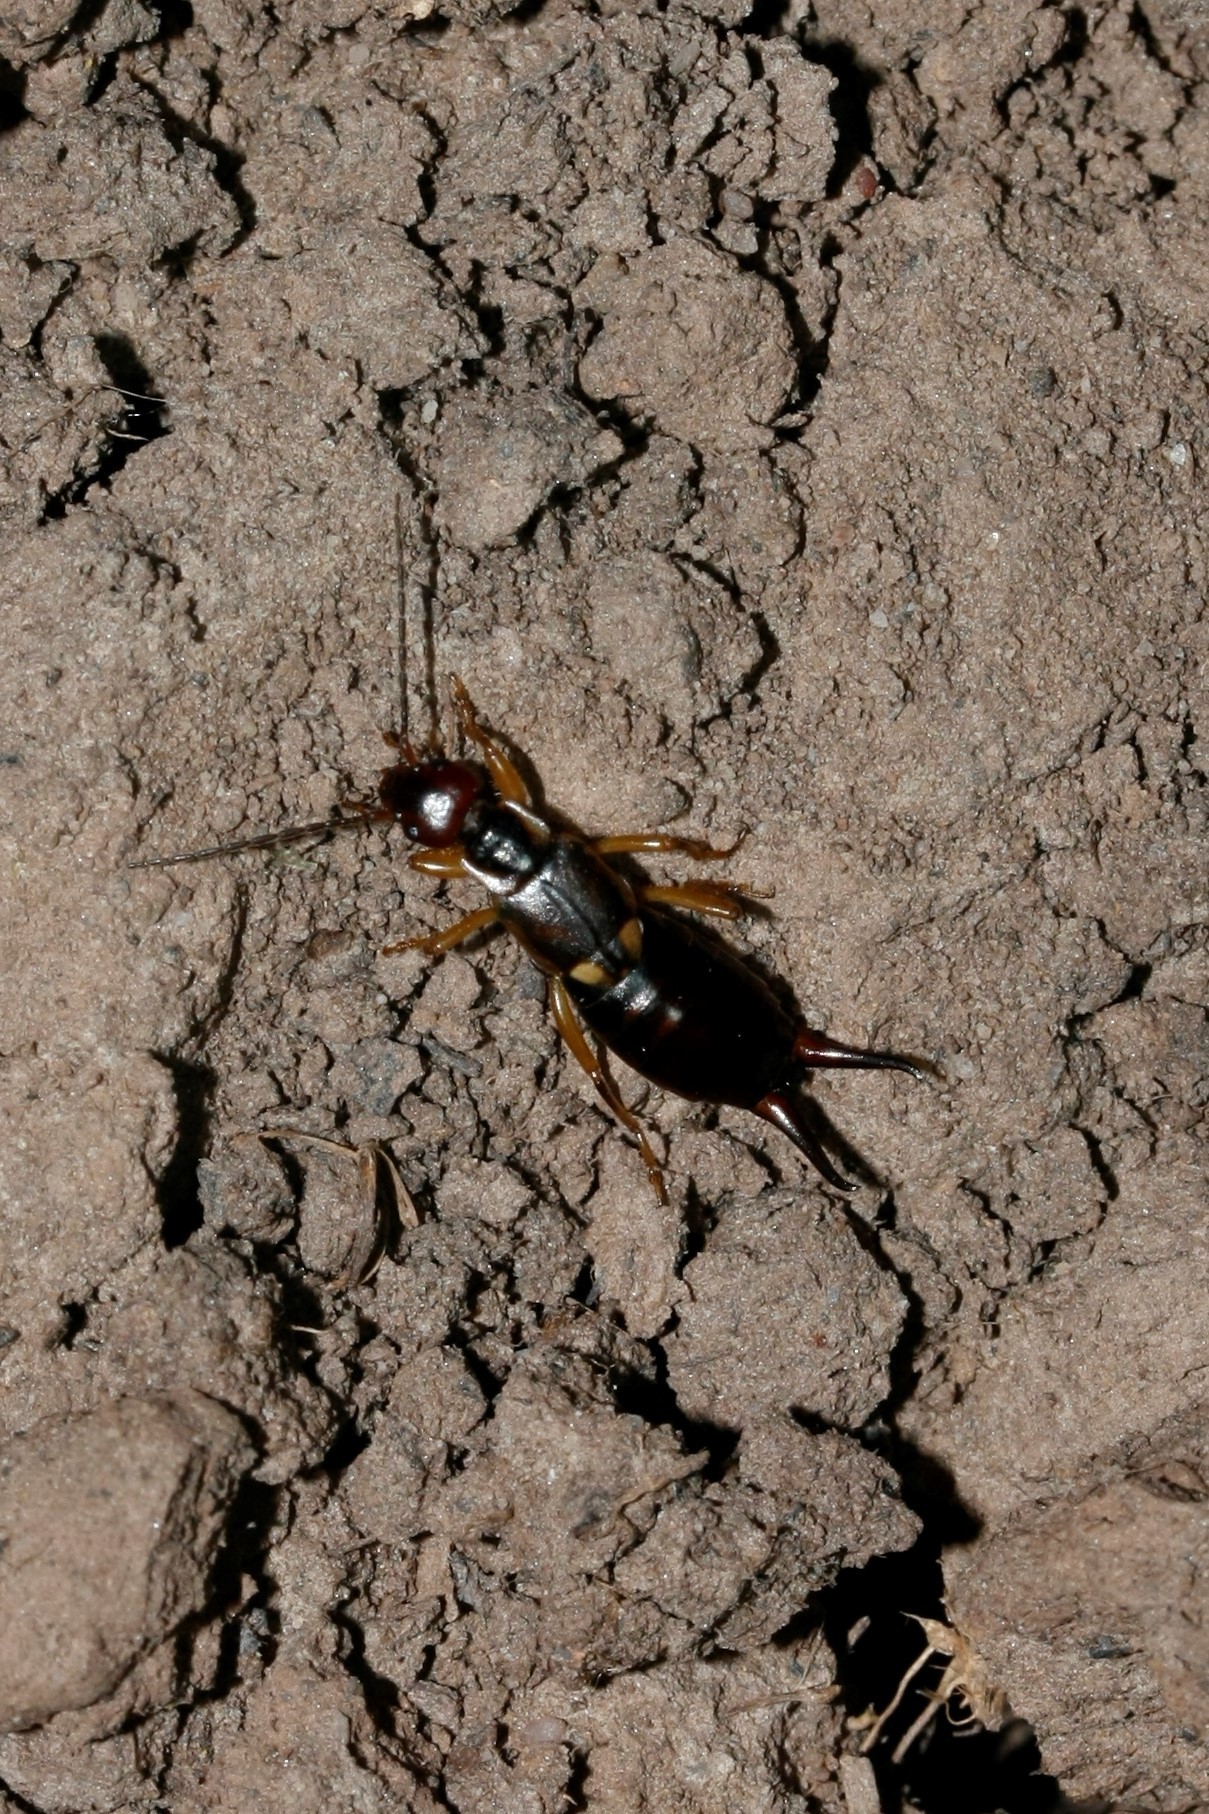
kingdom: Animalia
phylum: Arthropoda
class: Insecta
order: Dermaptera
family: Forficulidae
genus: Forficula
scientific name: Forficula
